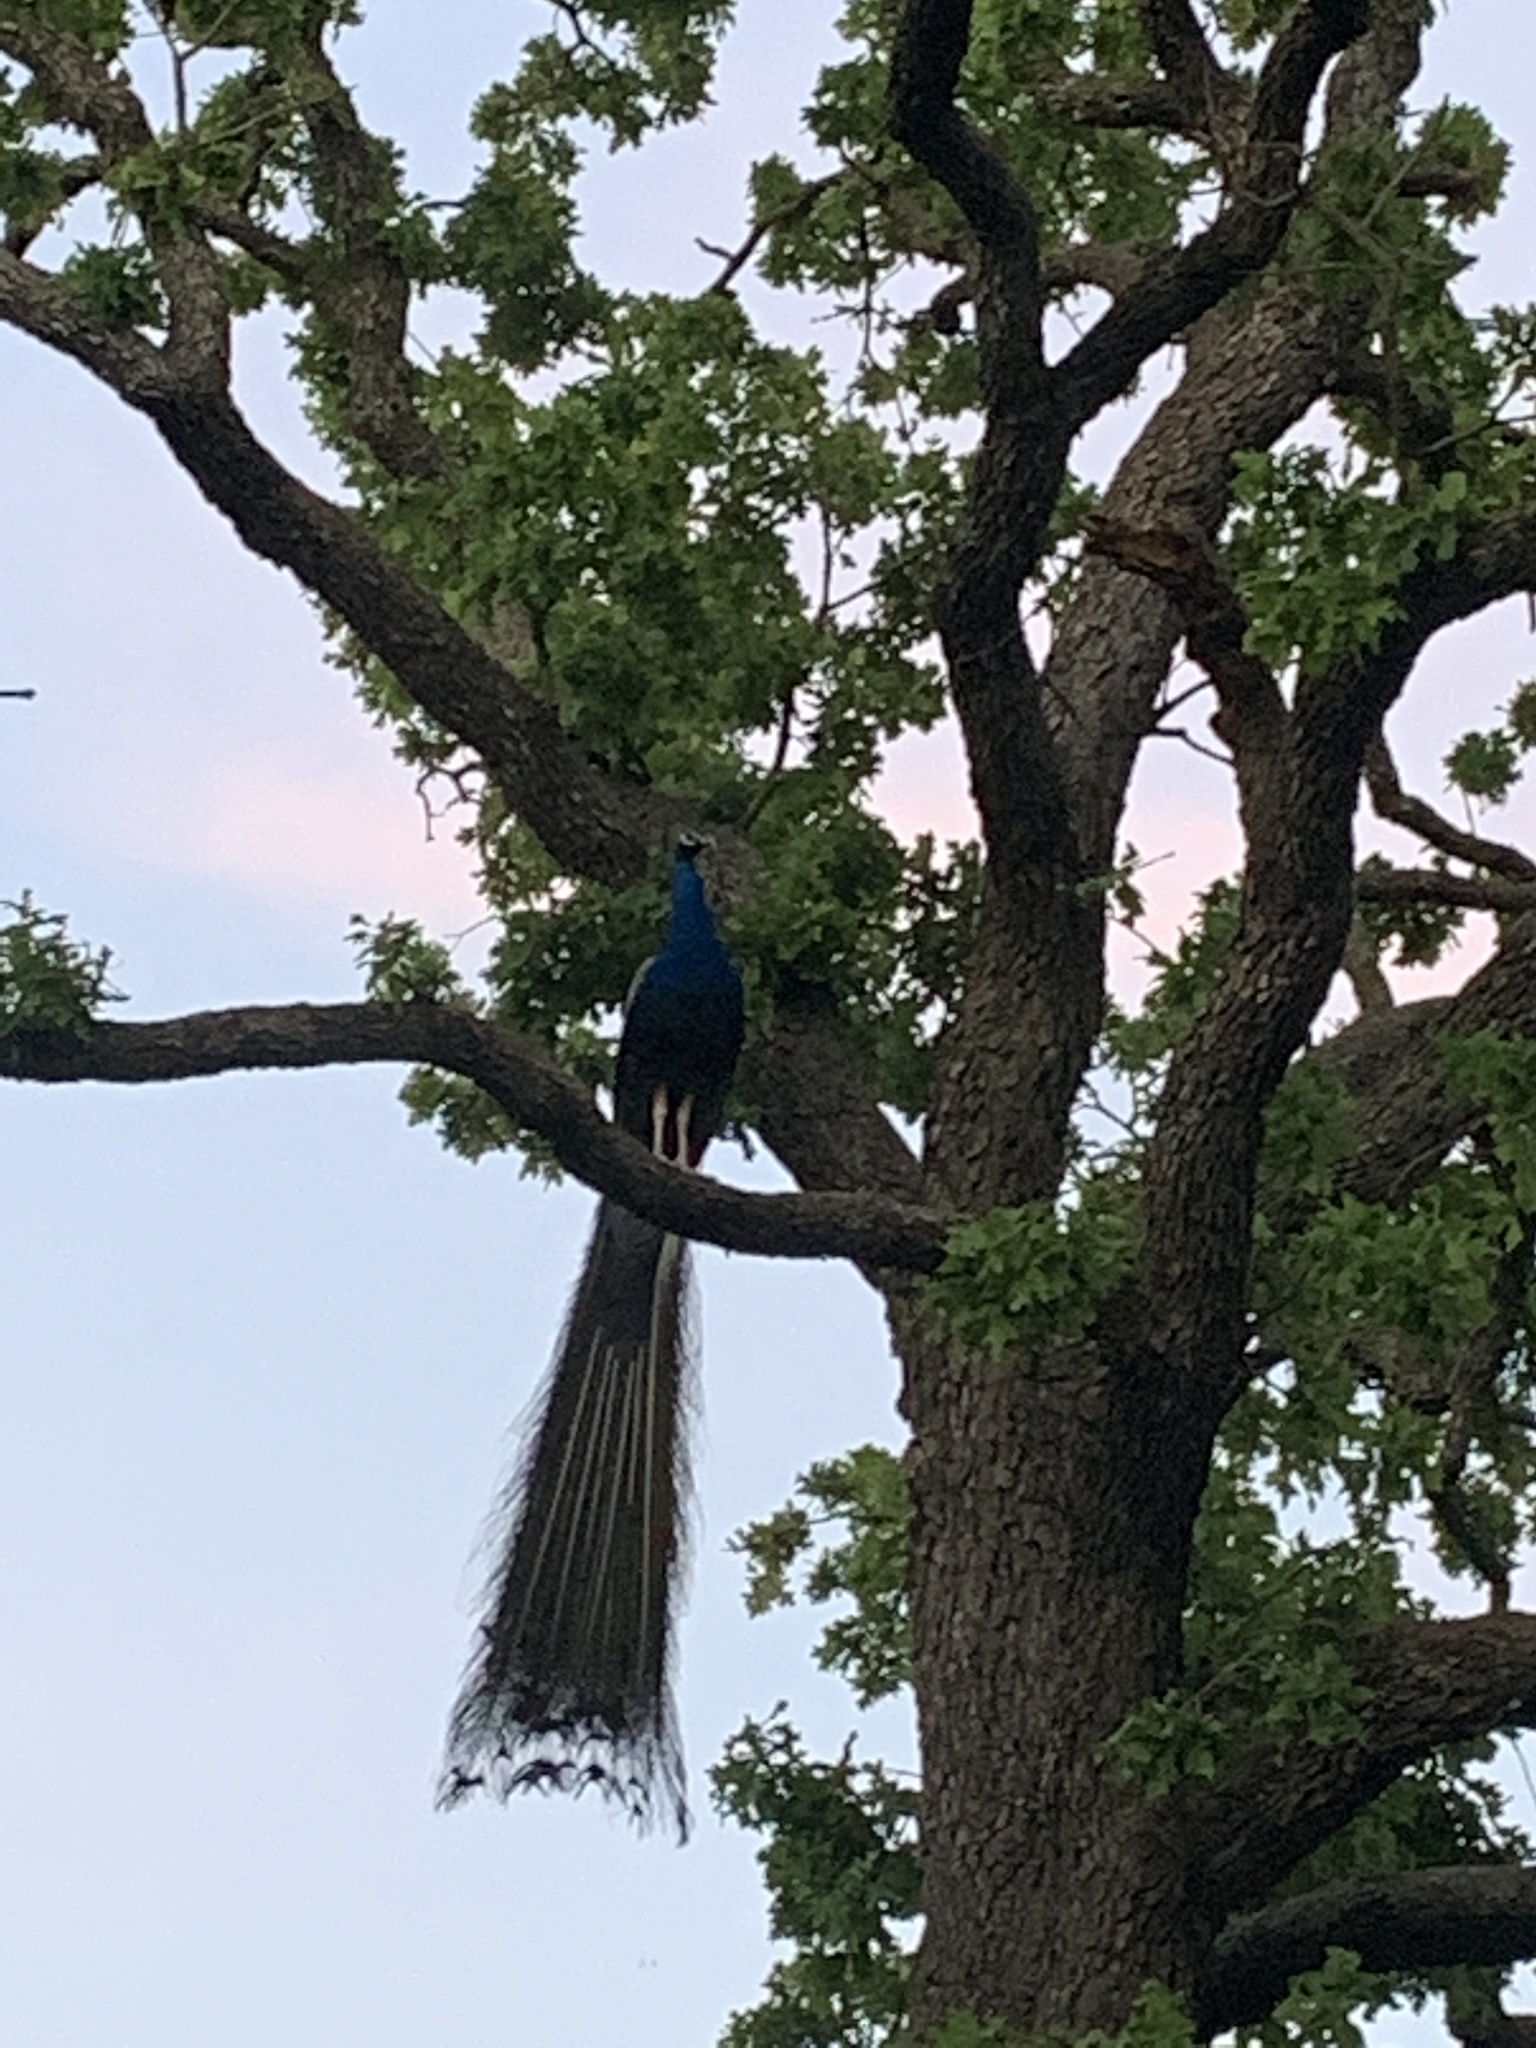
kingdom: Animalia
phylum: Chordata
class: Aves
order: Galliformes
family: Phasianidae
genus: Pavo
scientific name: Pavo cristatus
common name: Indian peafowl
